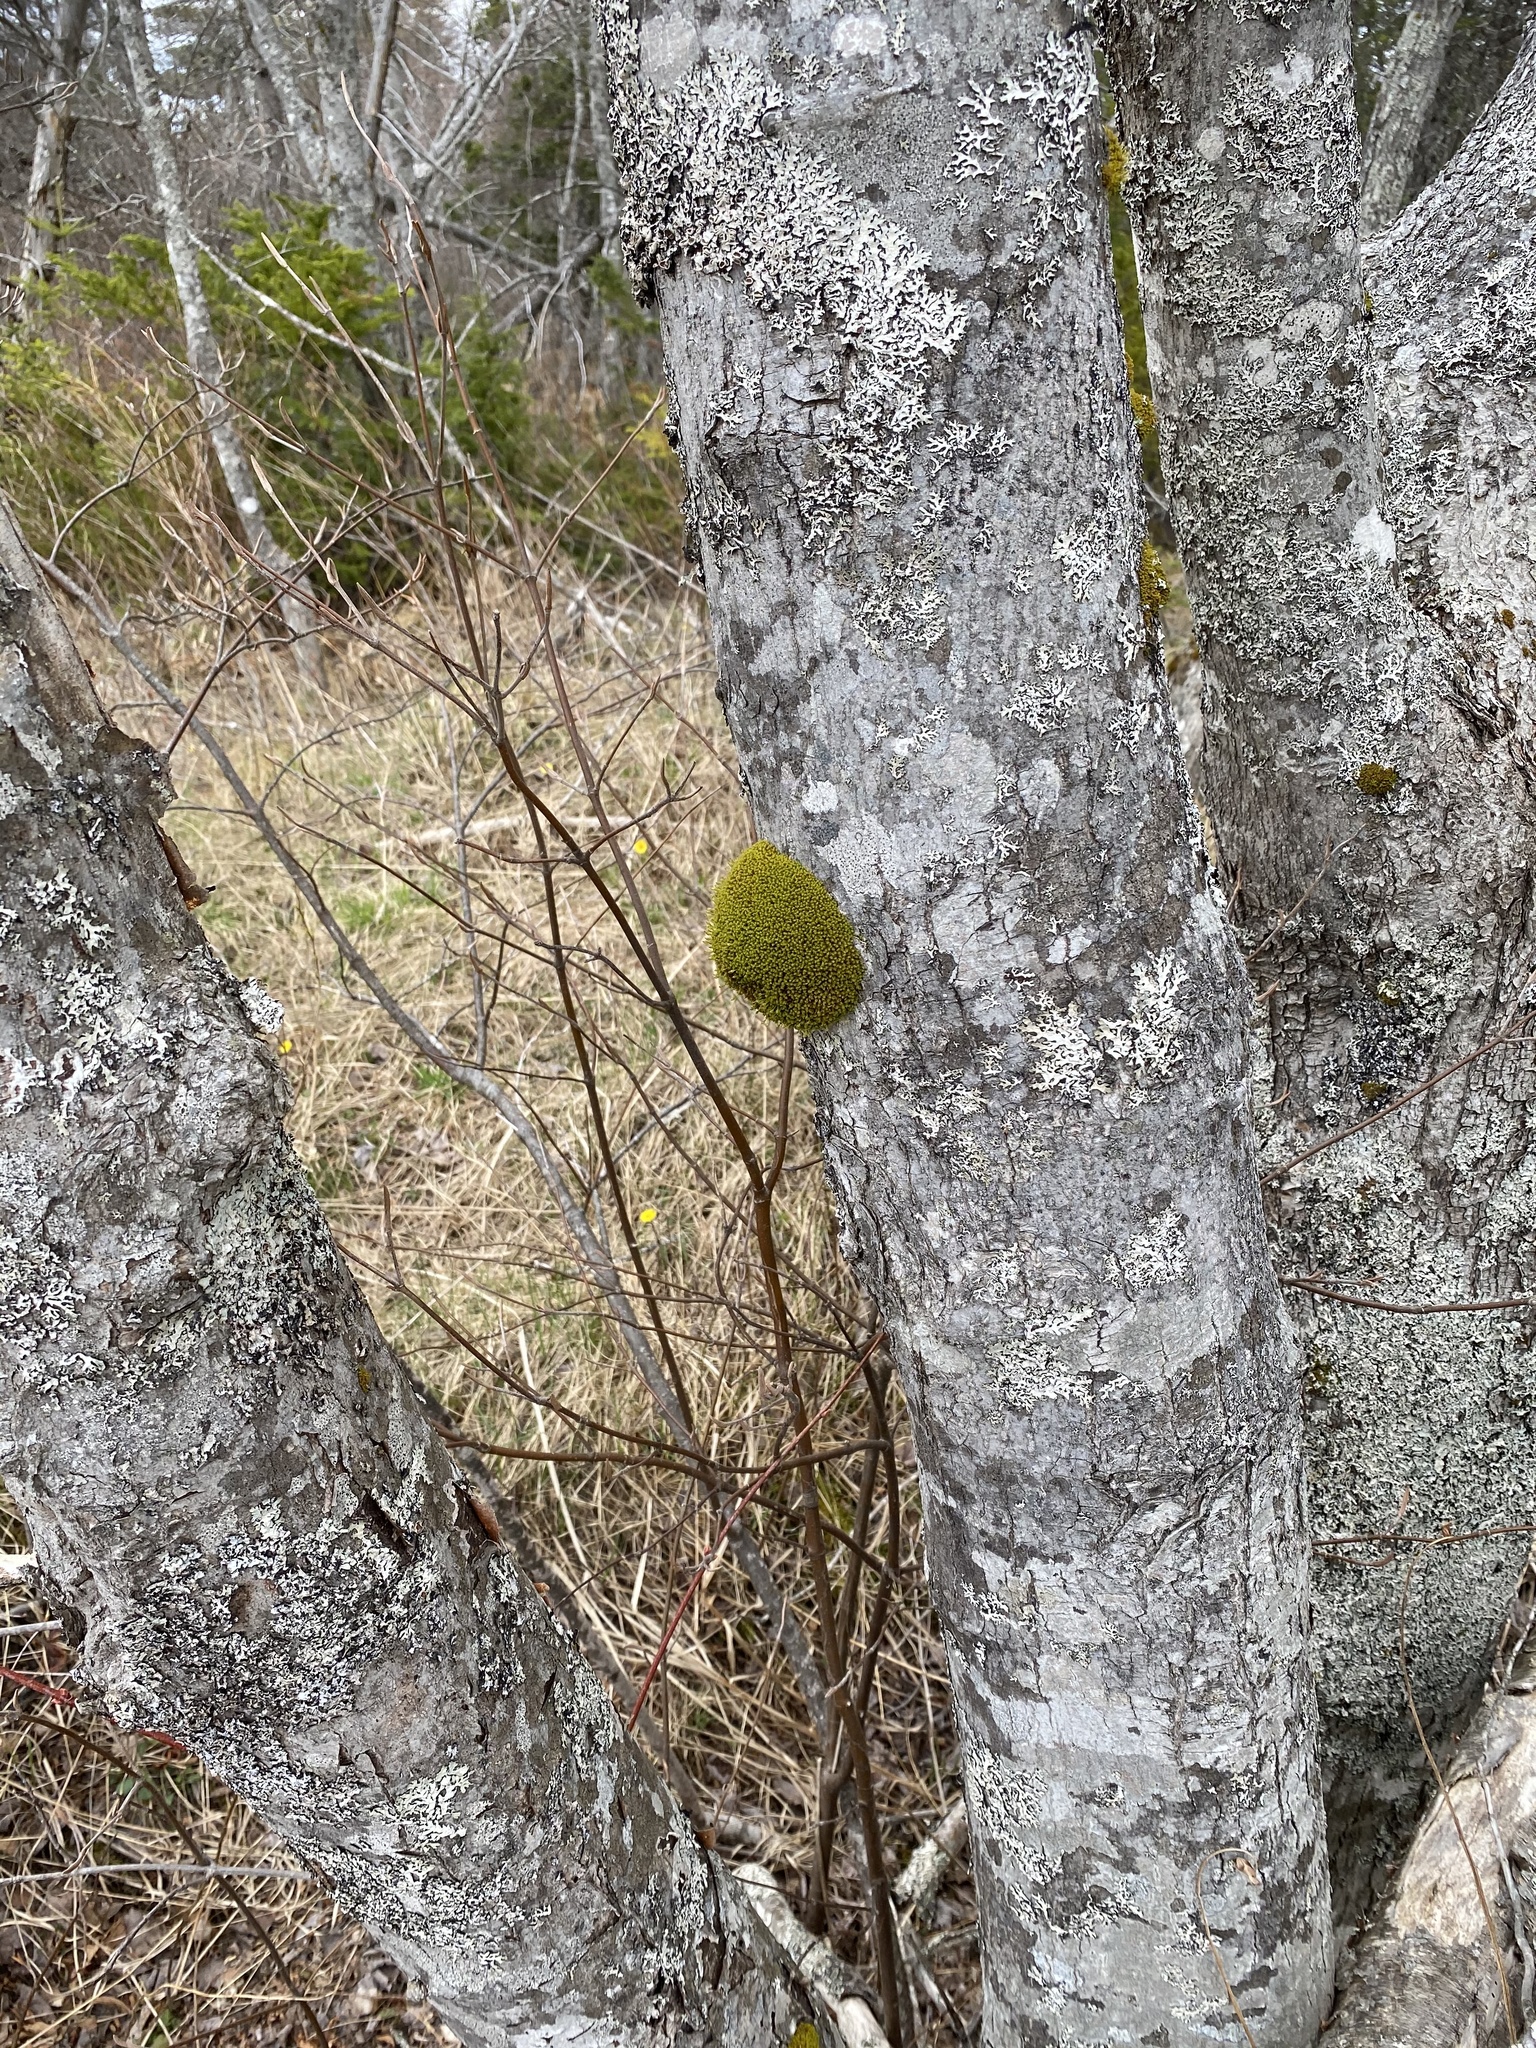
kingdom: Plantae
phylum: Bryophyta
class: Bryopsida
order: Orthotrichales
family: Orthotrichaceae
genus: Ulota
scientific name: Ulota crispa
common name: Crisped pincushion moss
